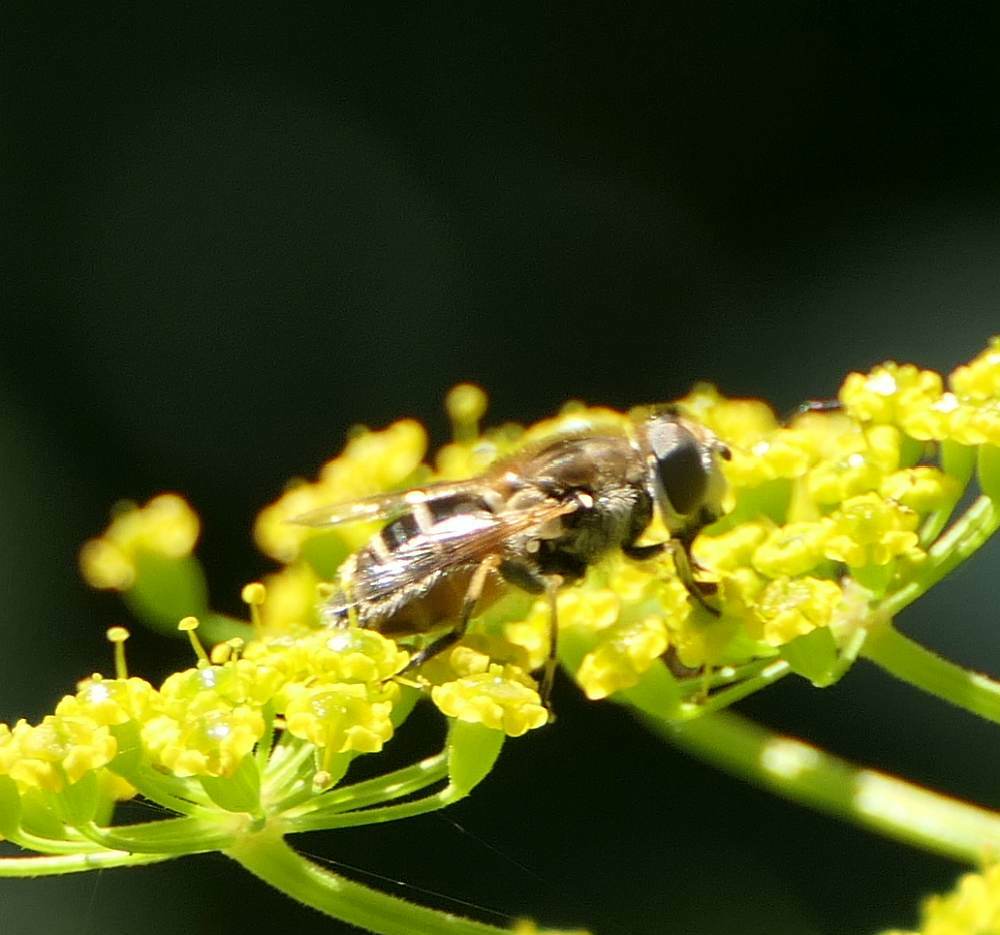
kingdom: Animalia
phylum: Arthropoda
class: Insecta
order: Diptera
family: Syrphidae
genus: Eristalis
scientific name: Eristalis arbustorum
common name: Hover fly
